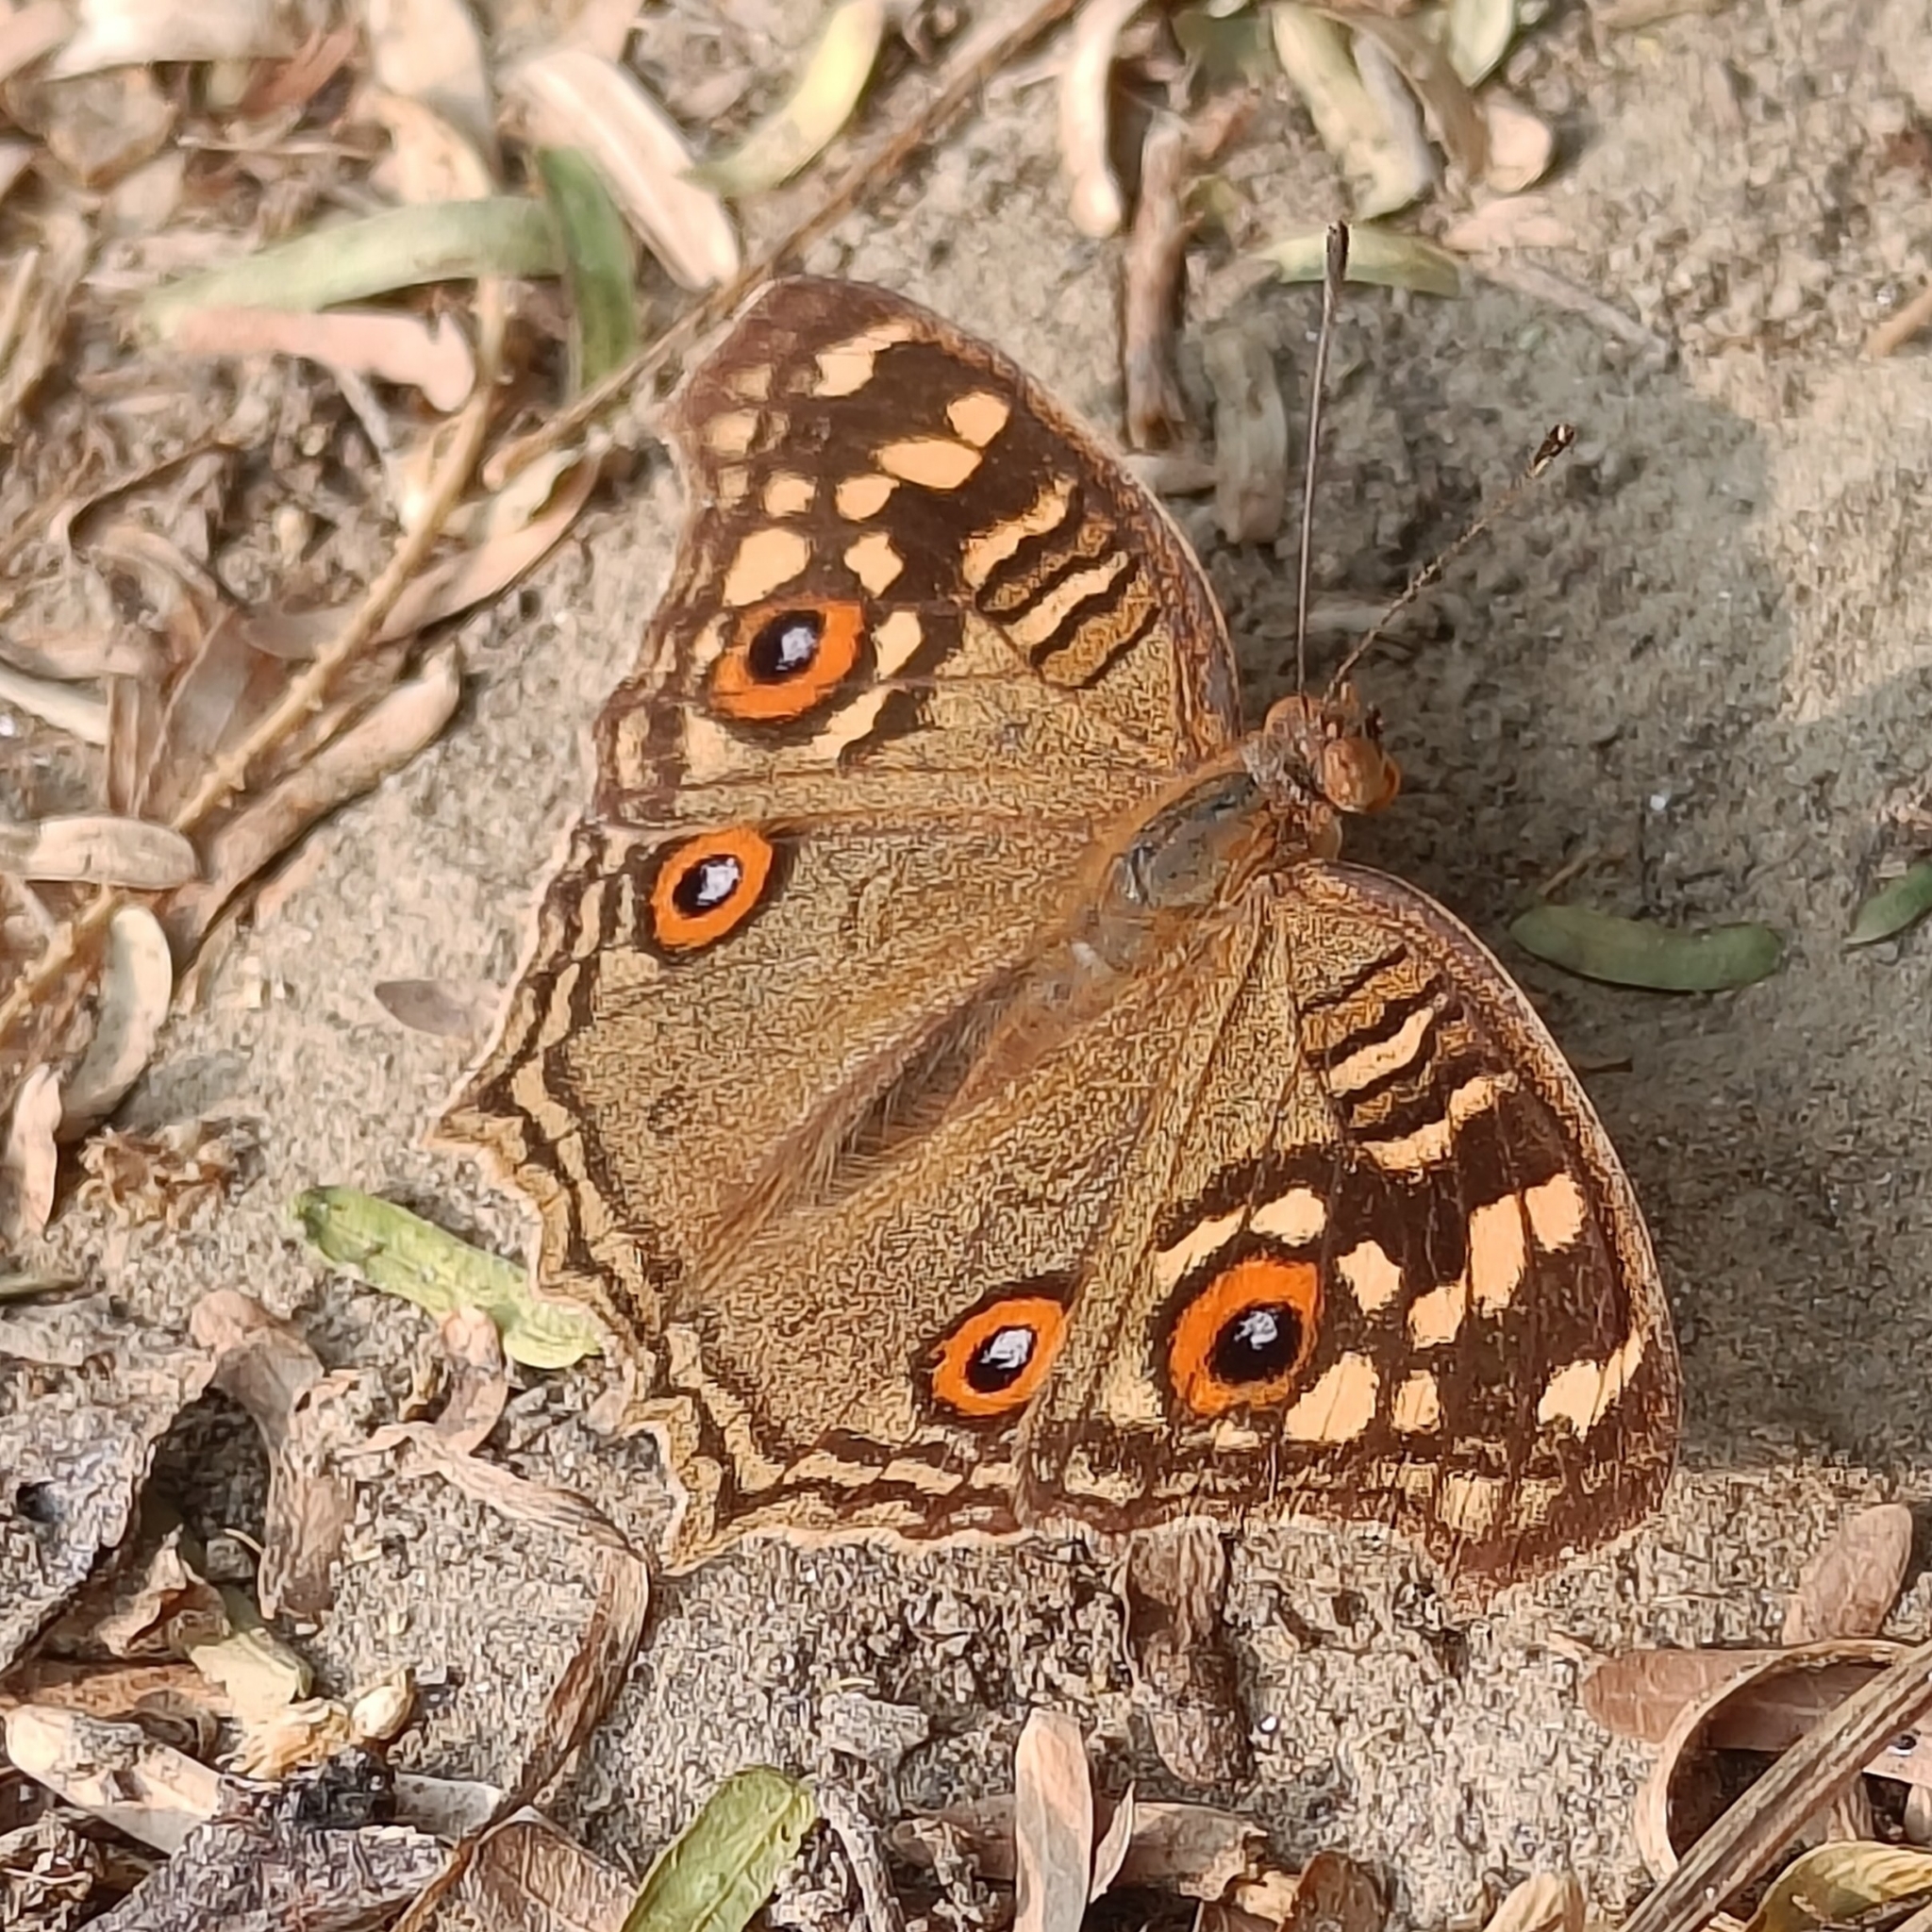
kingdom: Animalia
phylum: Arthropoda
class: Insecta
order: Lepidoptera
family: Nymphalidae
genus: Junonia
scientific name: Junonia lemonias
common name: Lemon pansy
